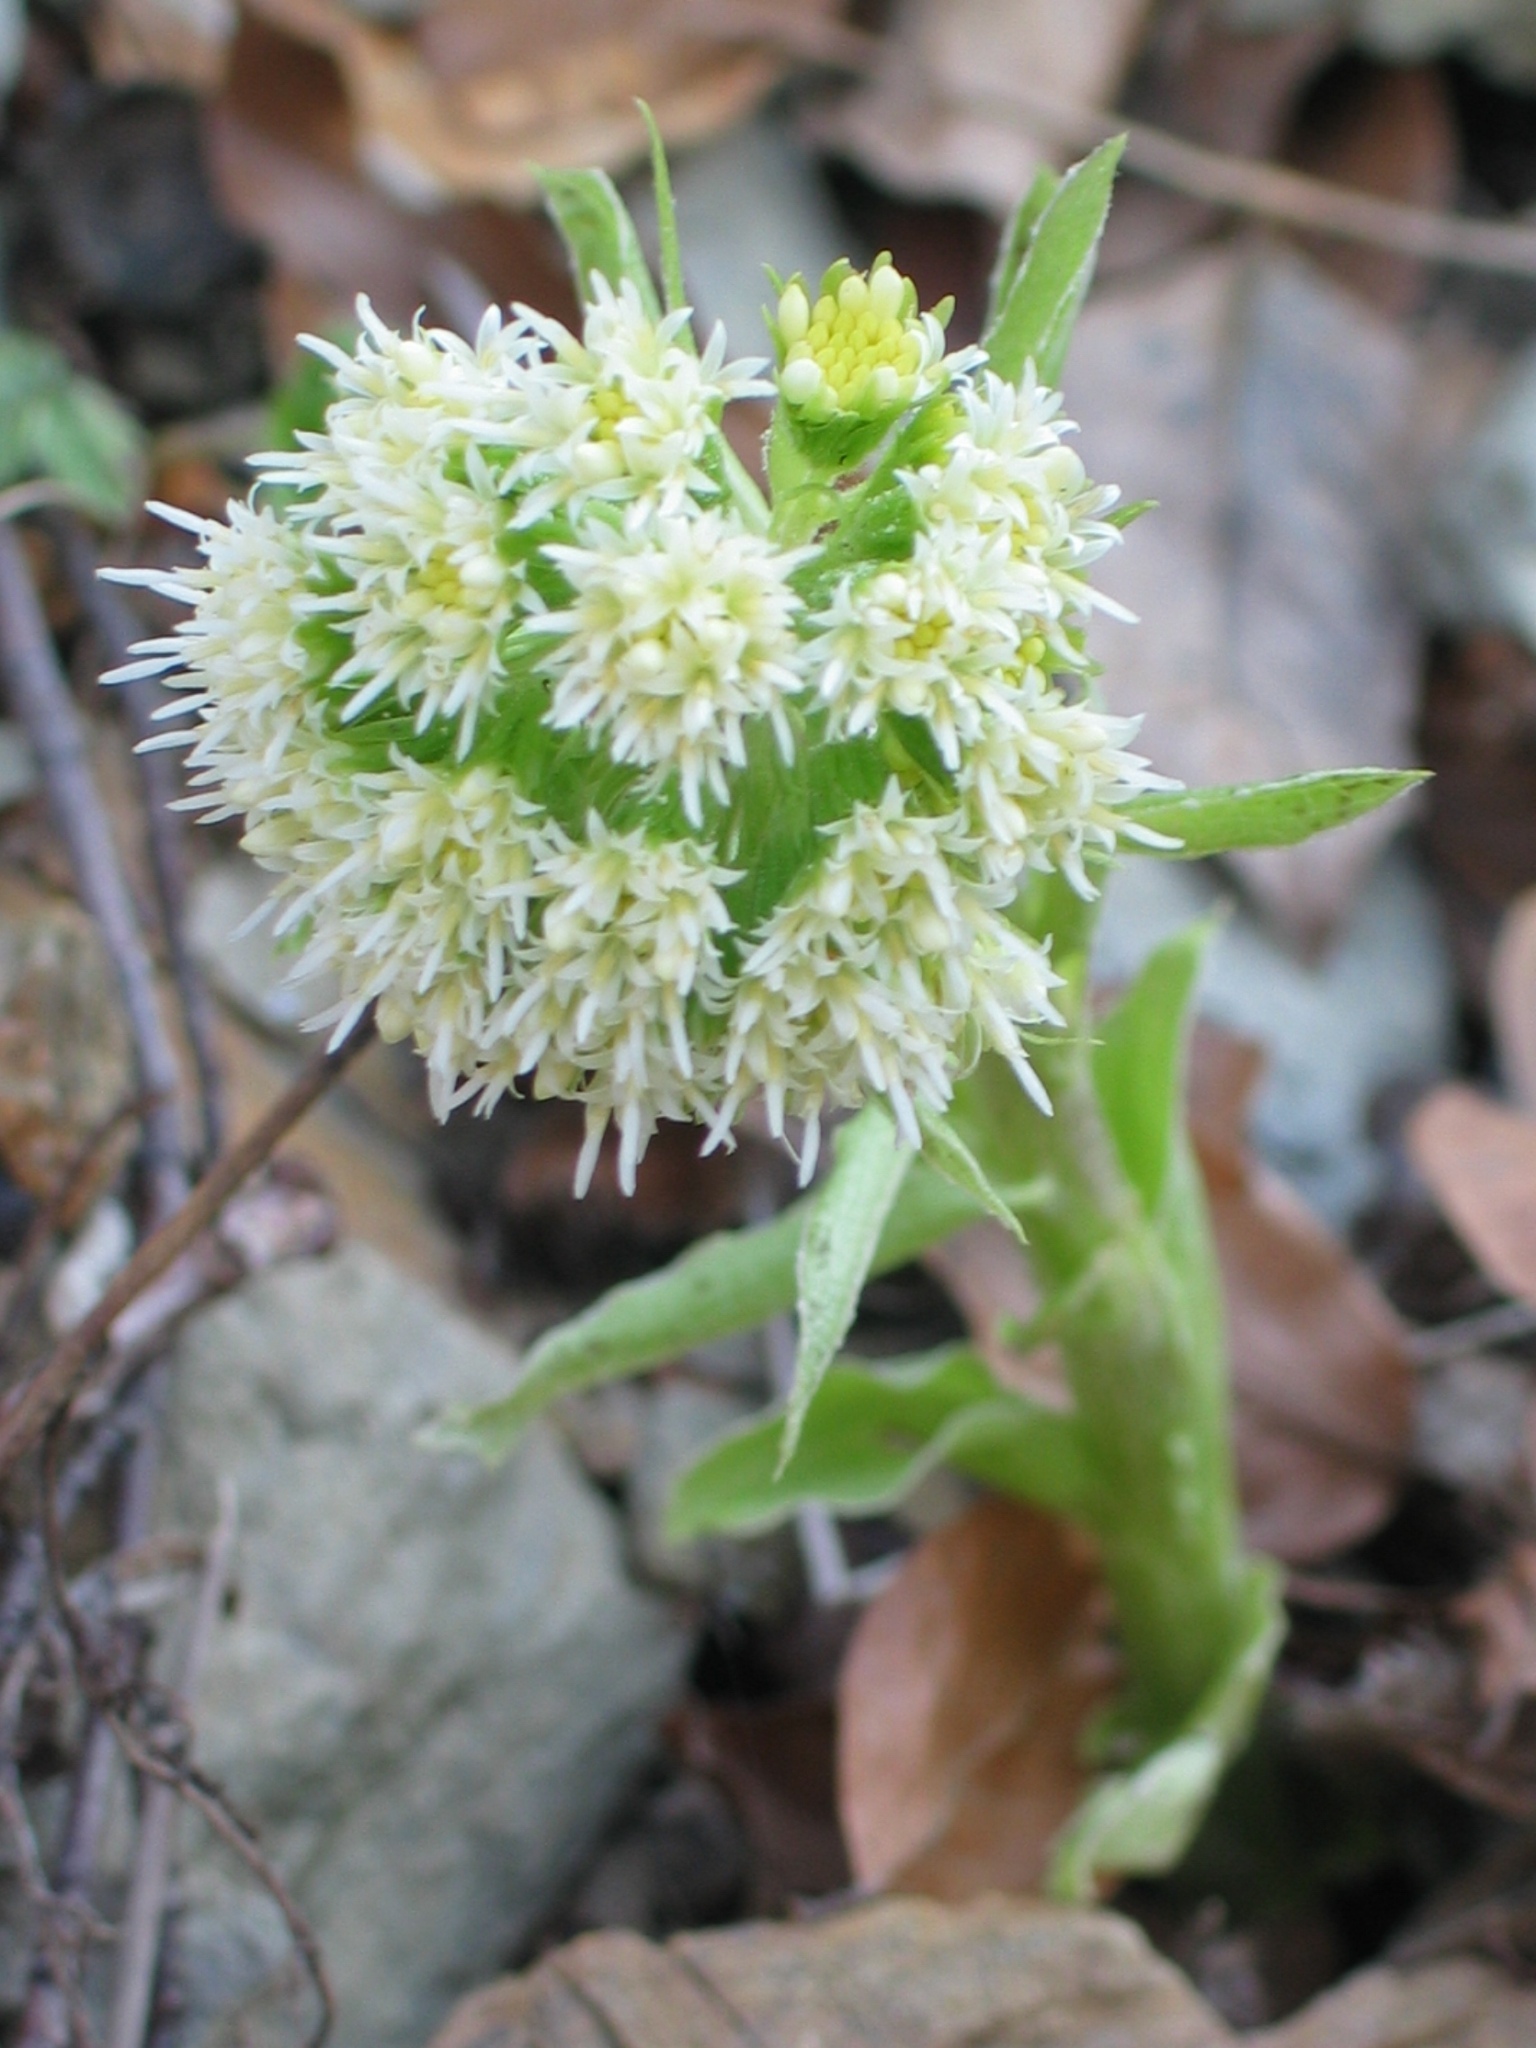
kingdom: Plantae
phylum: Tracheophyta
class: Magnoliopsida
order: Asterales
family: Asteraceae
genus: Petasites
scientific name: Petasites albus
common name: White butterbur
